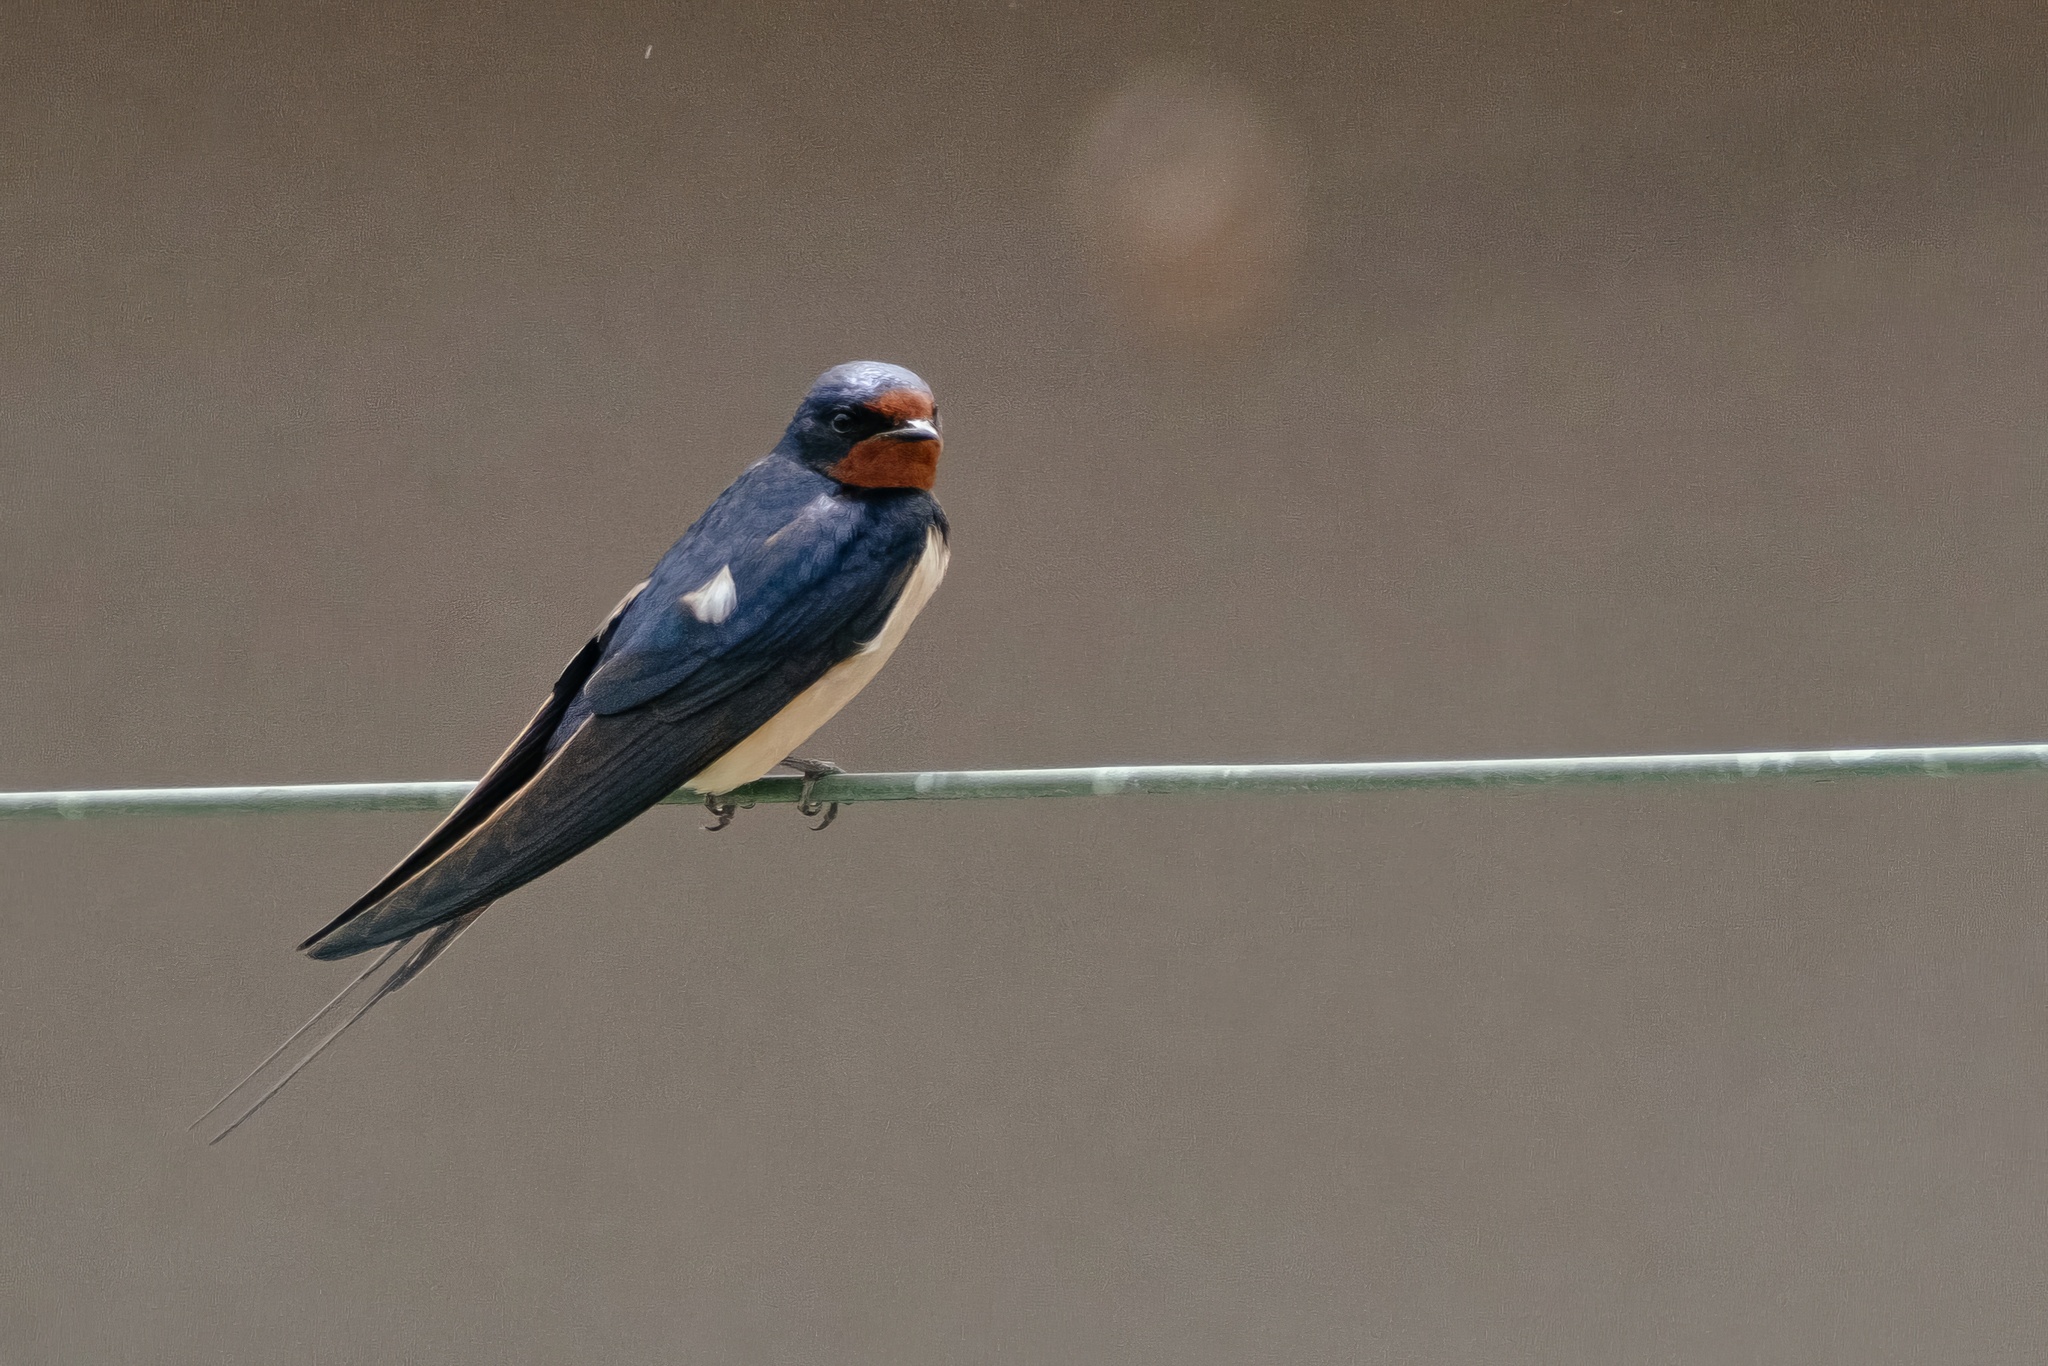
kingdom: Animalia
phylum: Chordata
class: Aves
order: Passeriformes
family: Hirundinidae
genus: Hirundo
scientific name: Hirundo rustica
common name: Barn swallow
